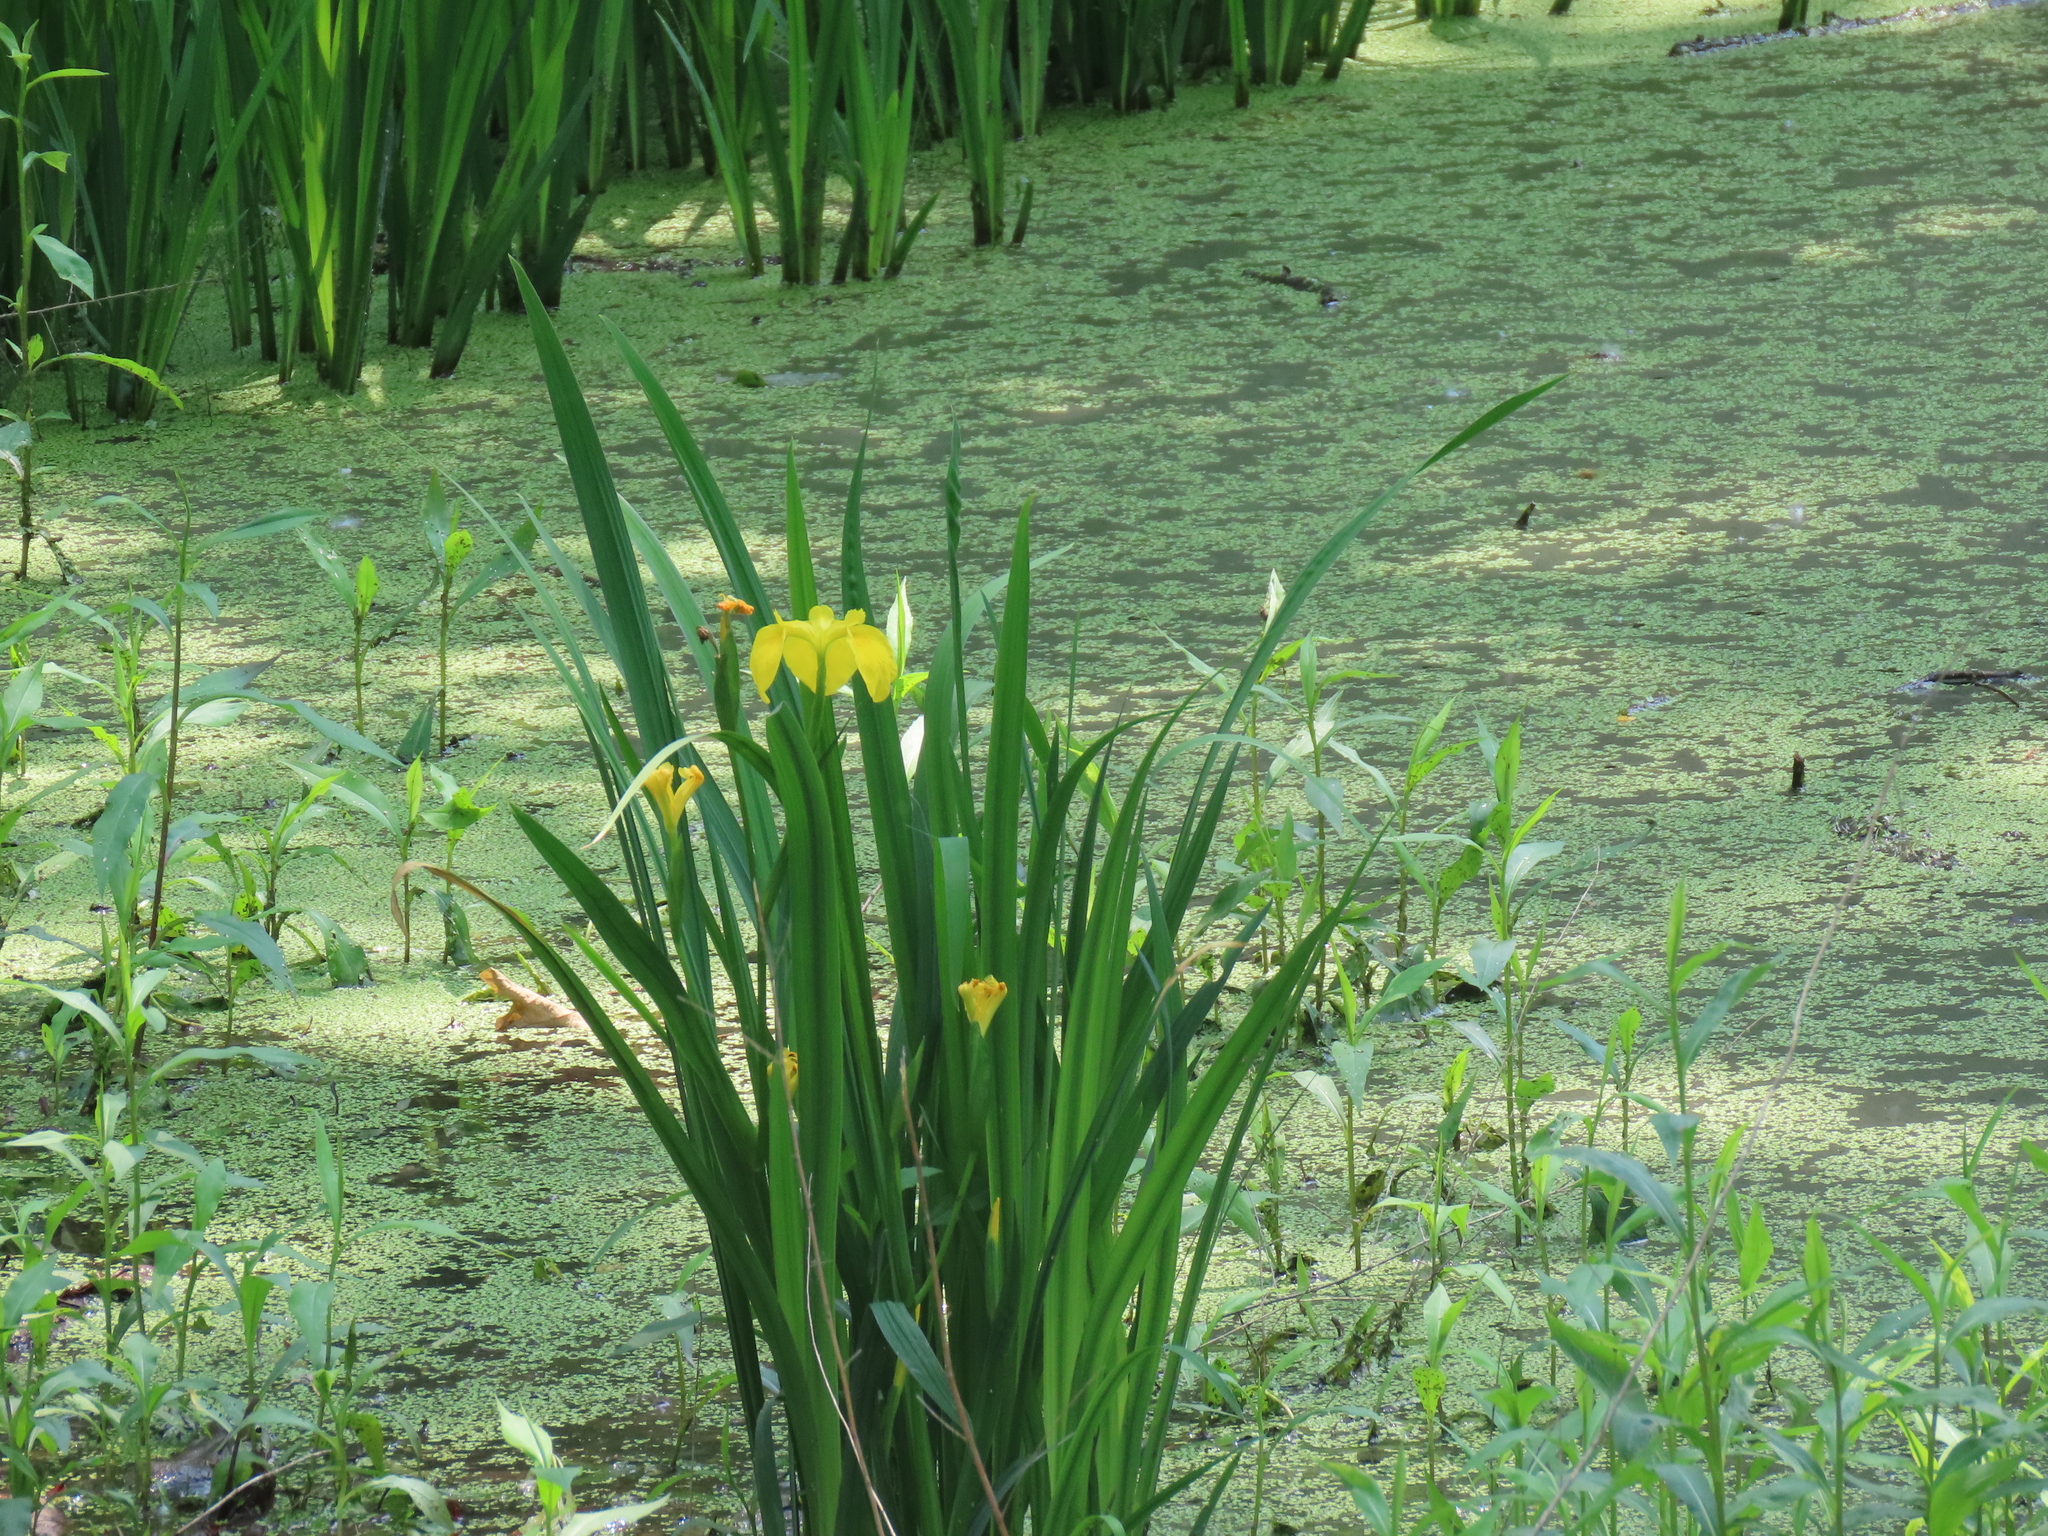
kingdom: Plantae
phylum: Tracheophyta
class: Liliopsida
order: Asparagales
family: Iridaceae
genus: Iris
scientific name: Iris pseudacorus
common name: Yellow flag
